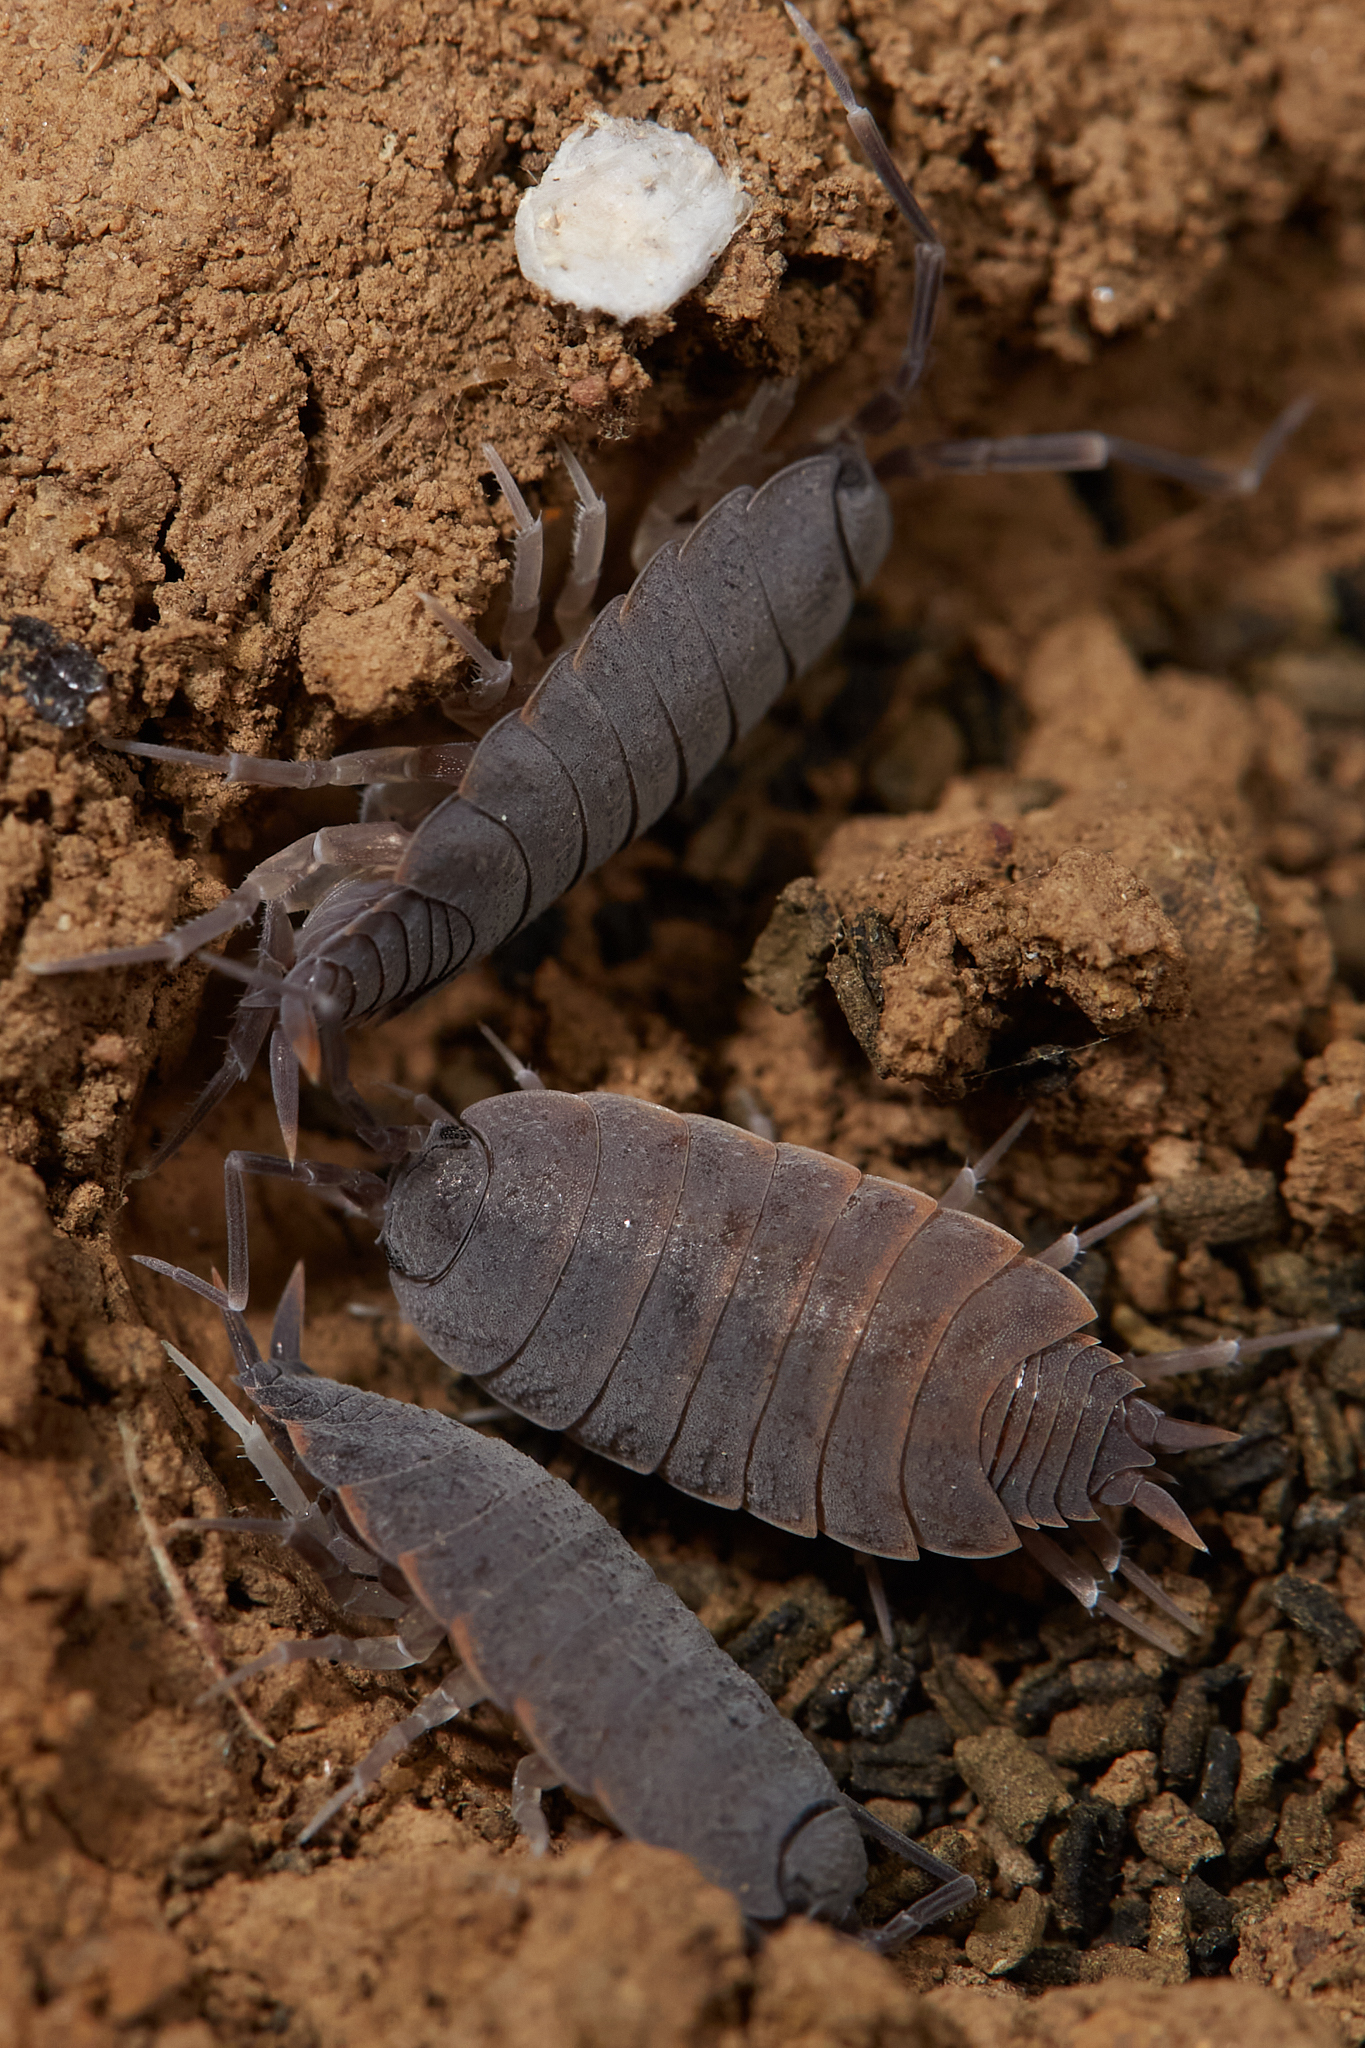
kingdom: Animalia
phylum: Arthropoda
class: Malacostraca
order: Isopoda
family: Porcellionidae
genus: Porcellionides
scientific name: Porcellionides floria
